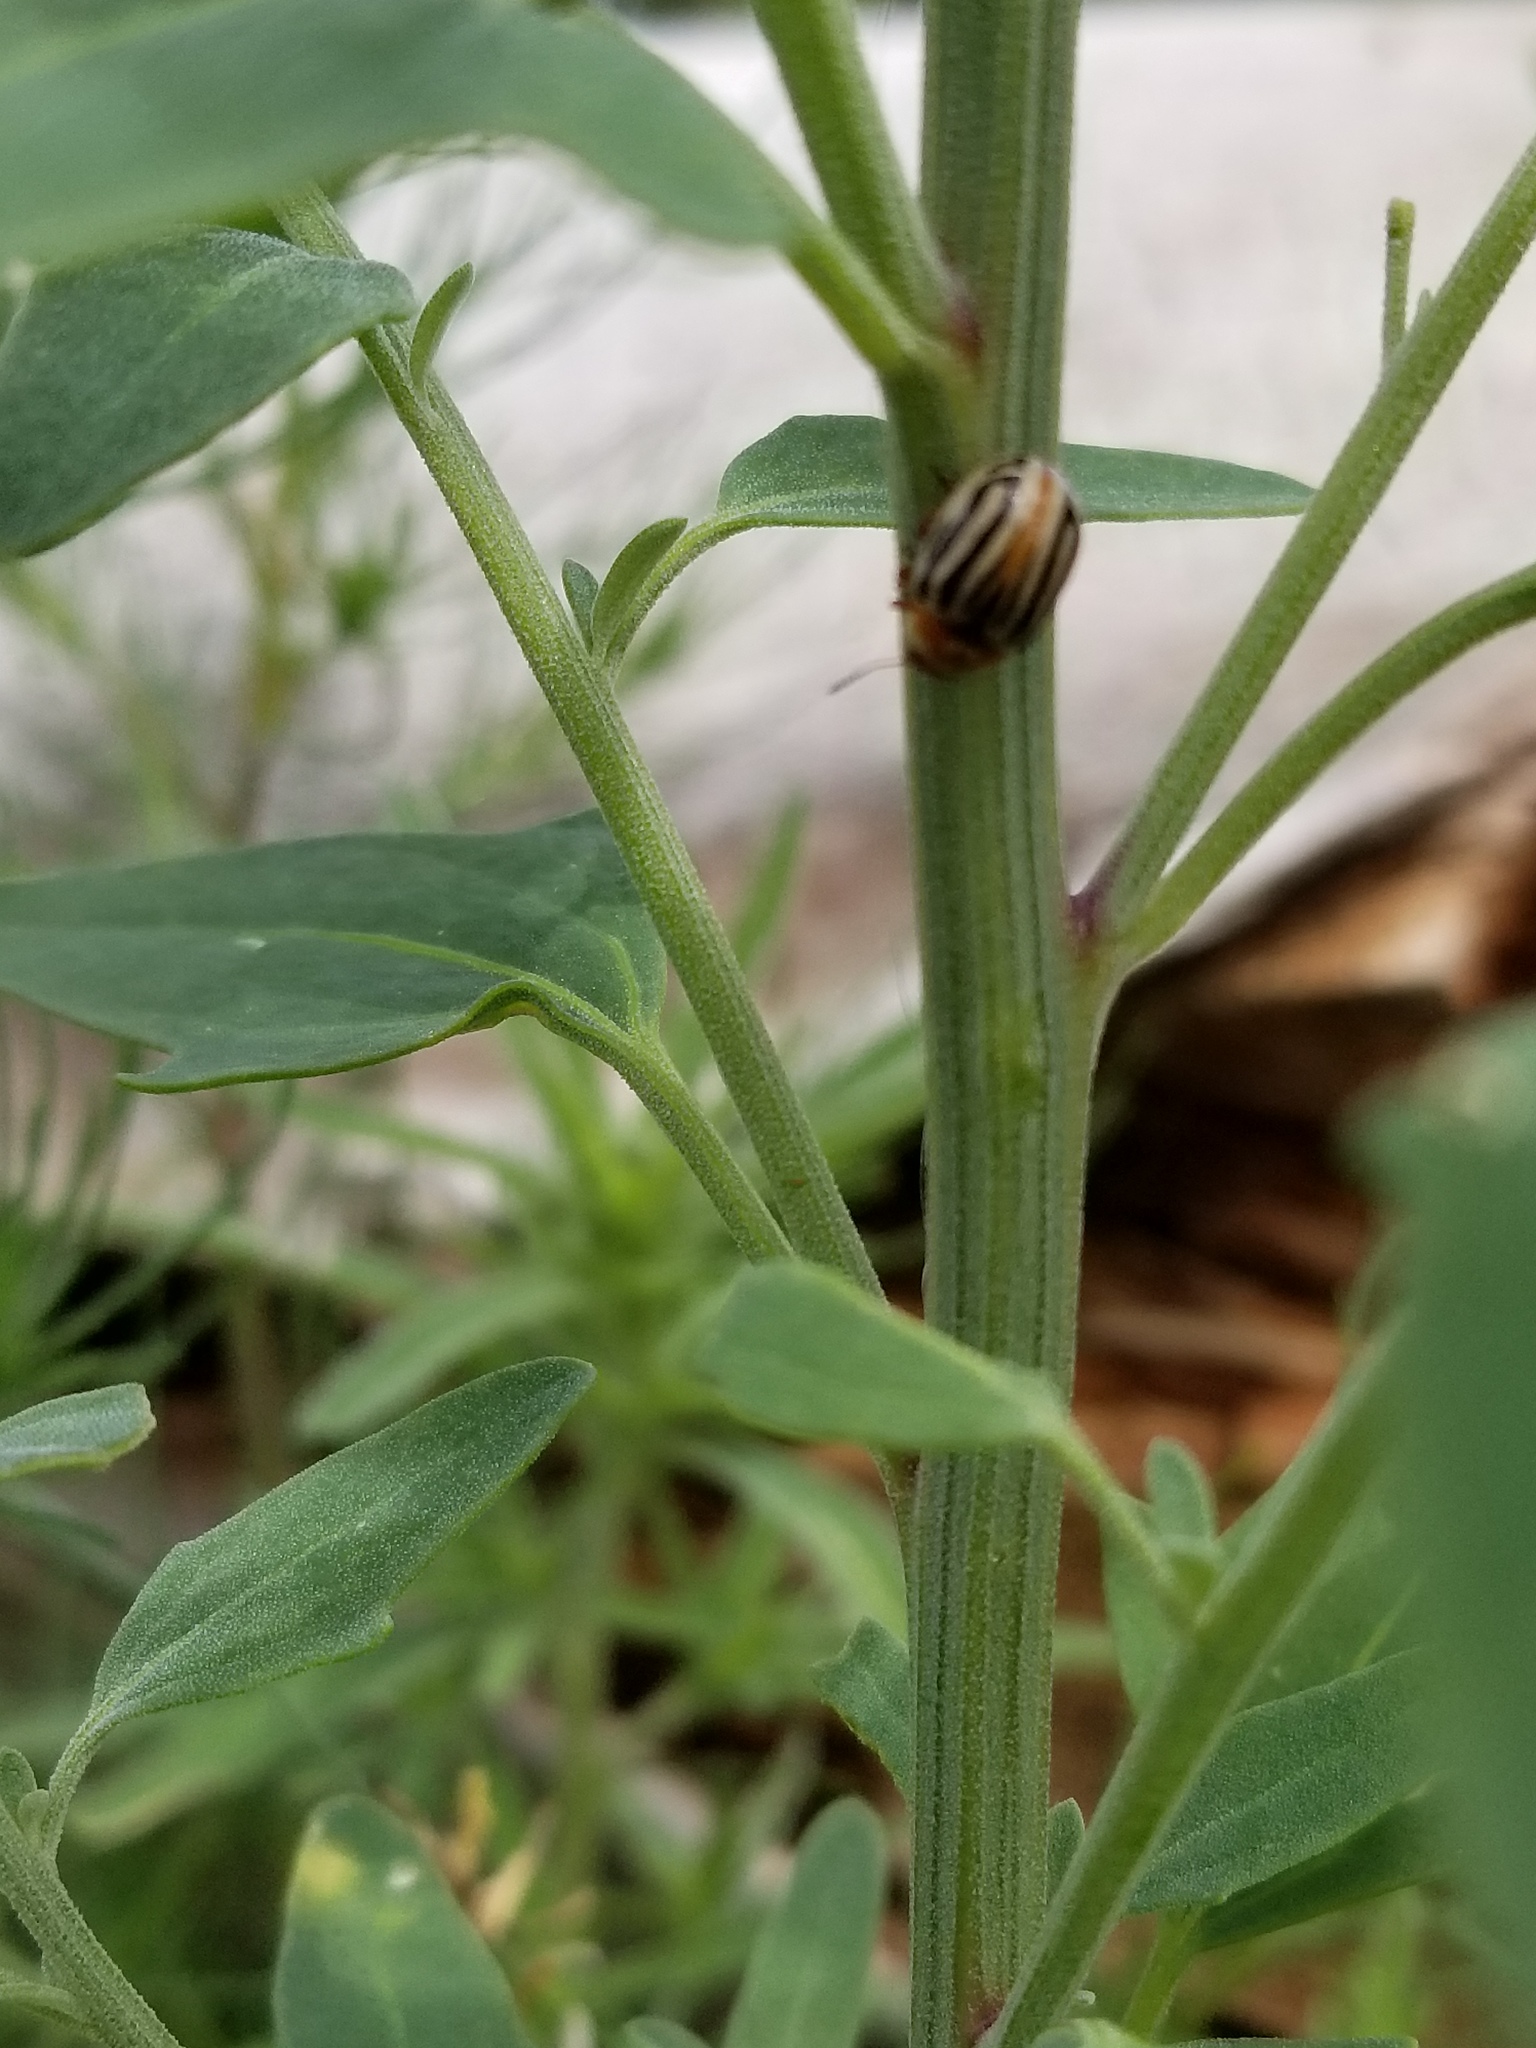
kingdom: Animalia
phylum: Arthropoda
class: Insecta
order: Coleoptera
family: Chrysomelidae
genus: Calligrapha
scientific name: Calligrapha
